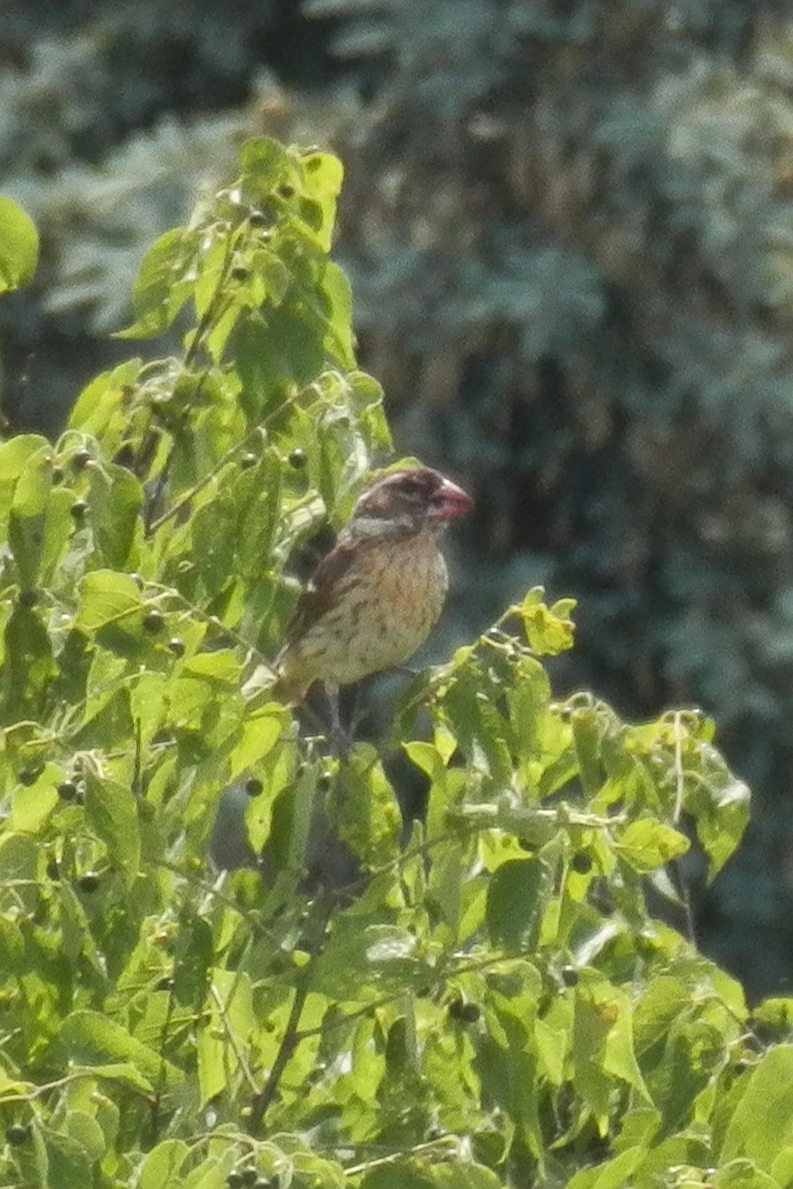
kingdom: Animalia
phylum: Chordata
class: Aves
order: Passeriformes
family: Cardinalidae
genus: Pheucticus
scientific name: Pheucticus ludovicianus
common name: Rose-breasted grosbeak
